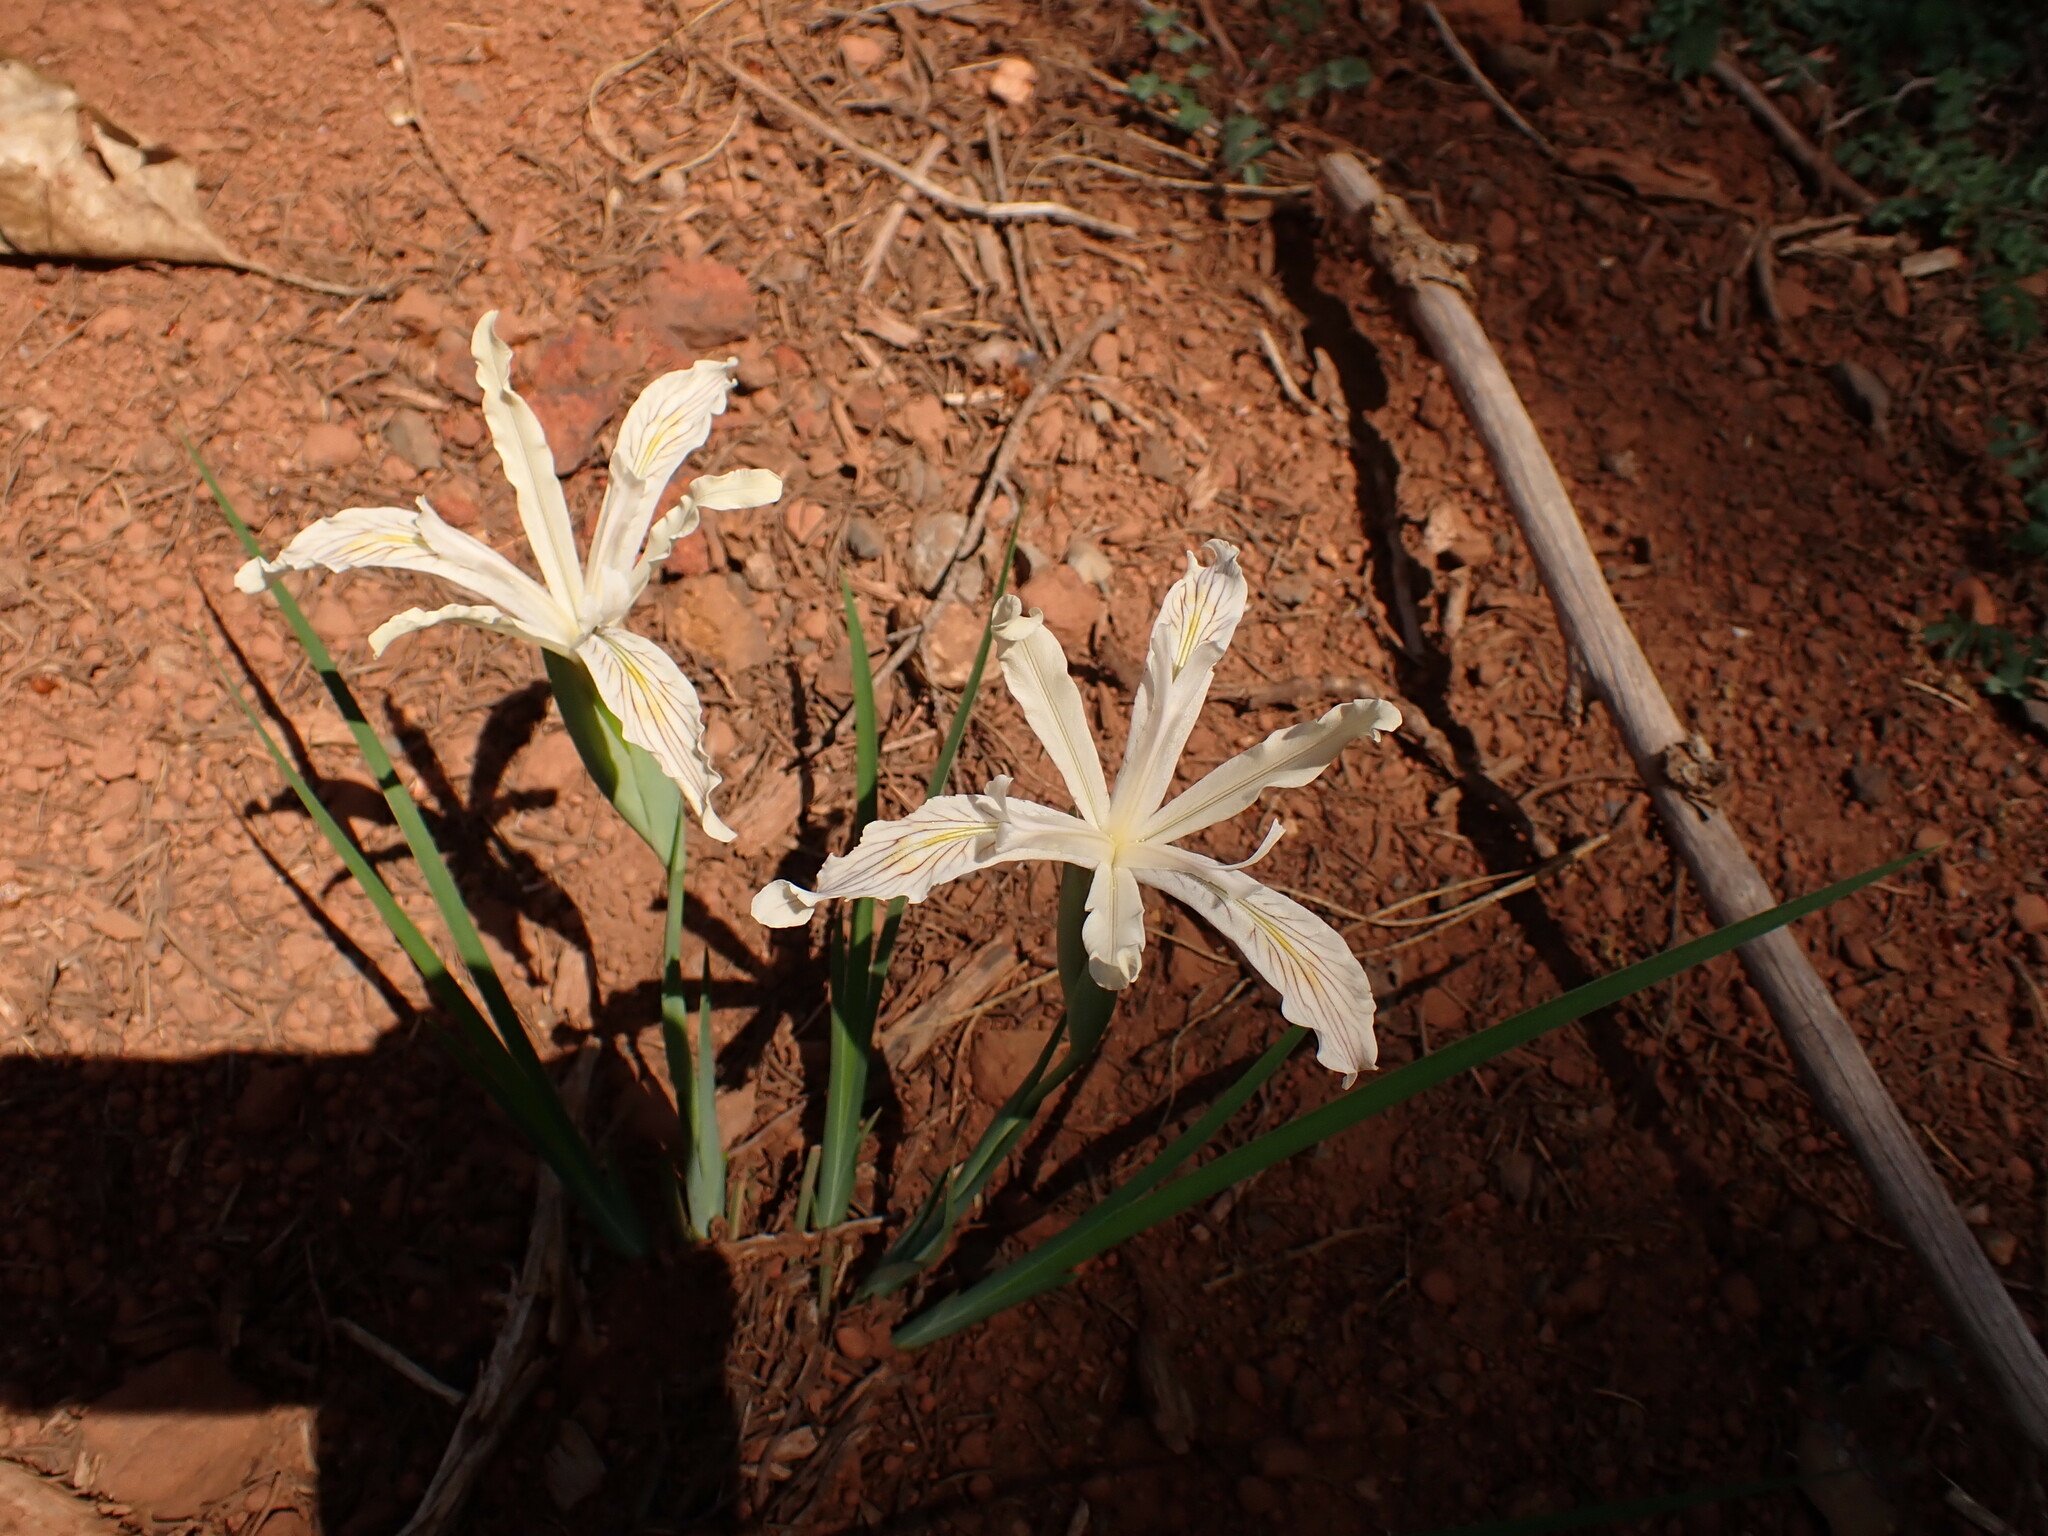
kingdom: Plantae
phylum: Tracheophyta
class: Liliopsida
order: Asparagales
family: Iridaceae
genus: Iris
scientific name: Iris tenuissima
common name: Long-tube iris
